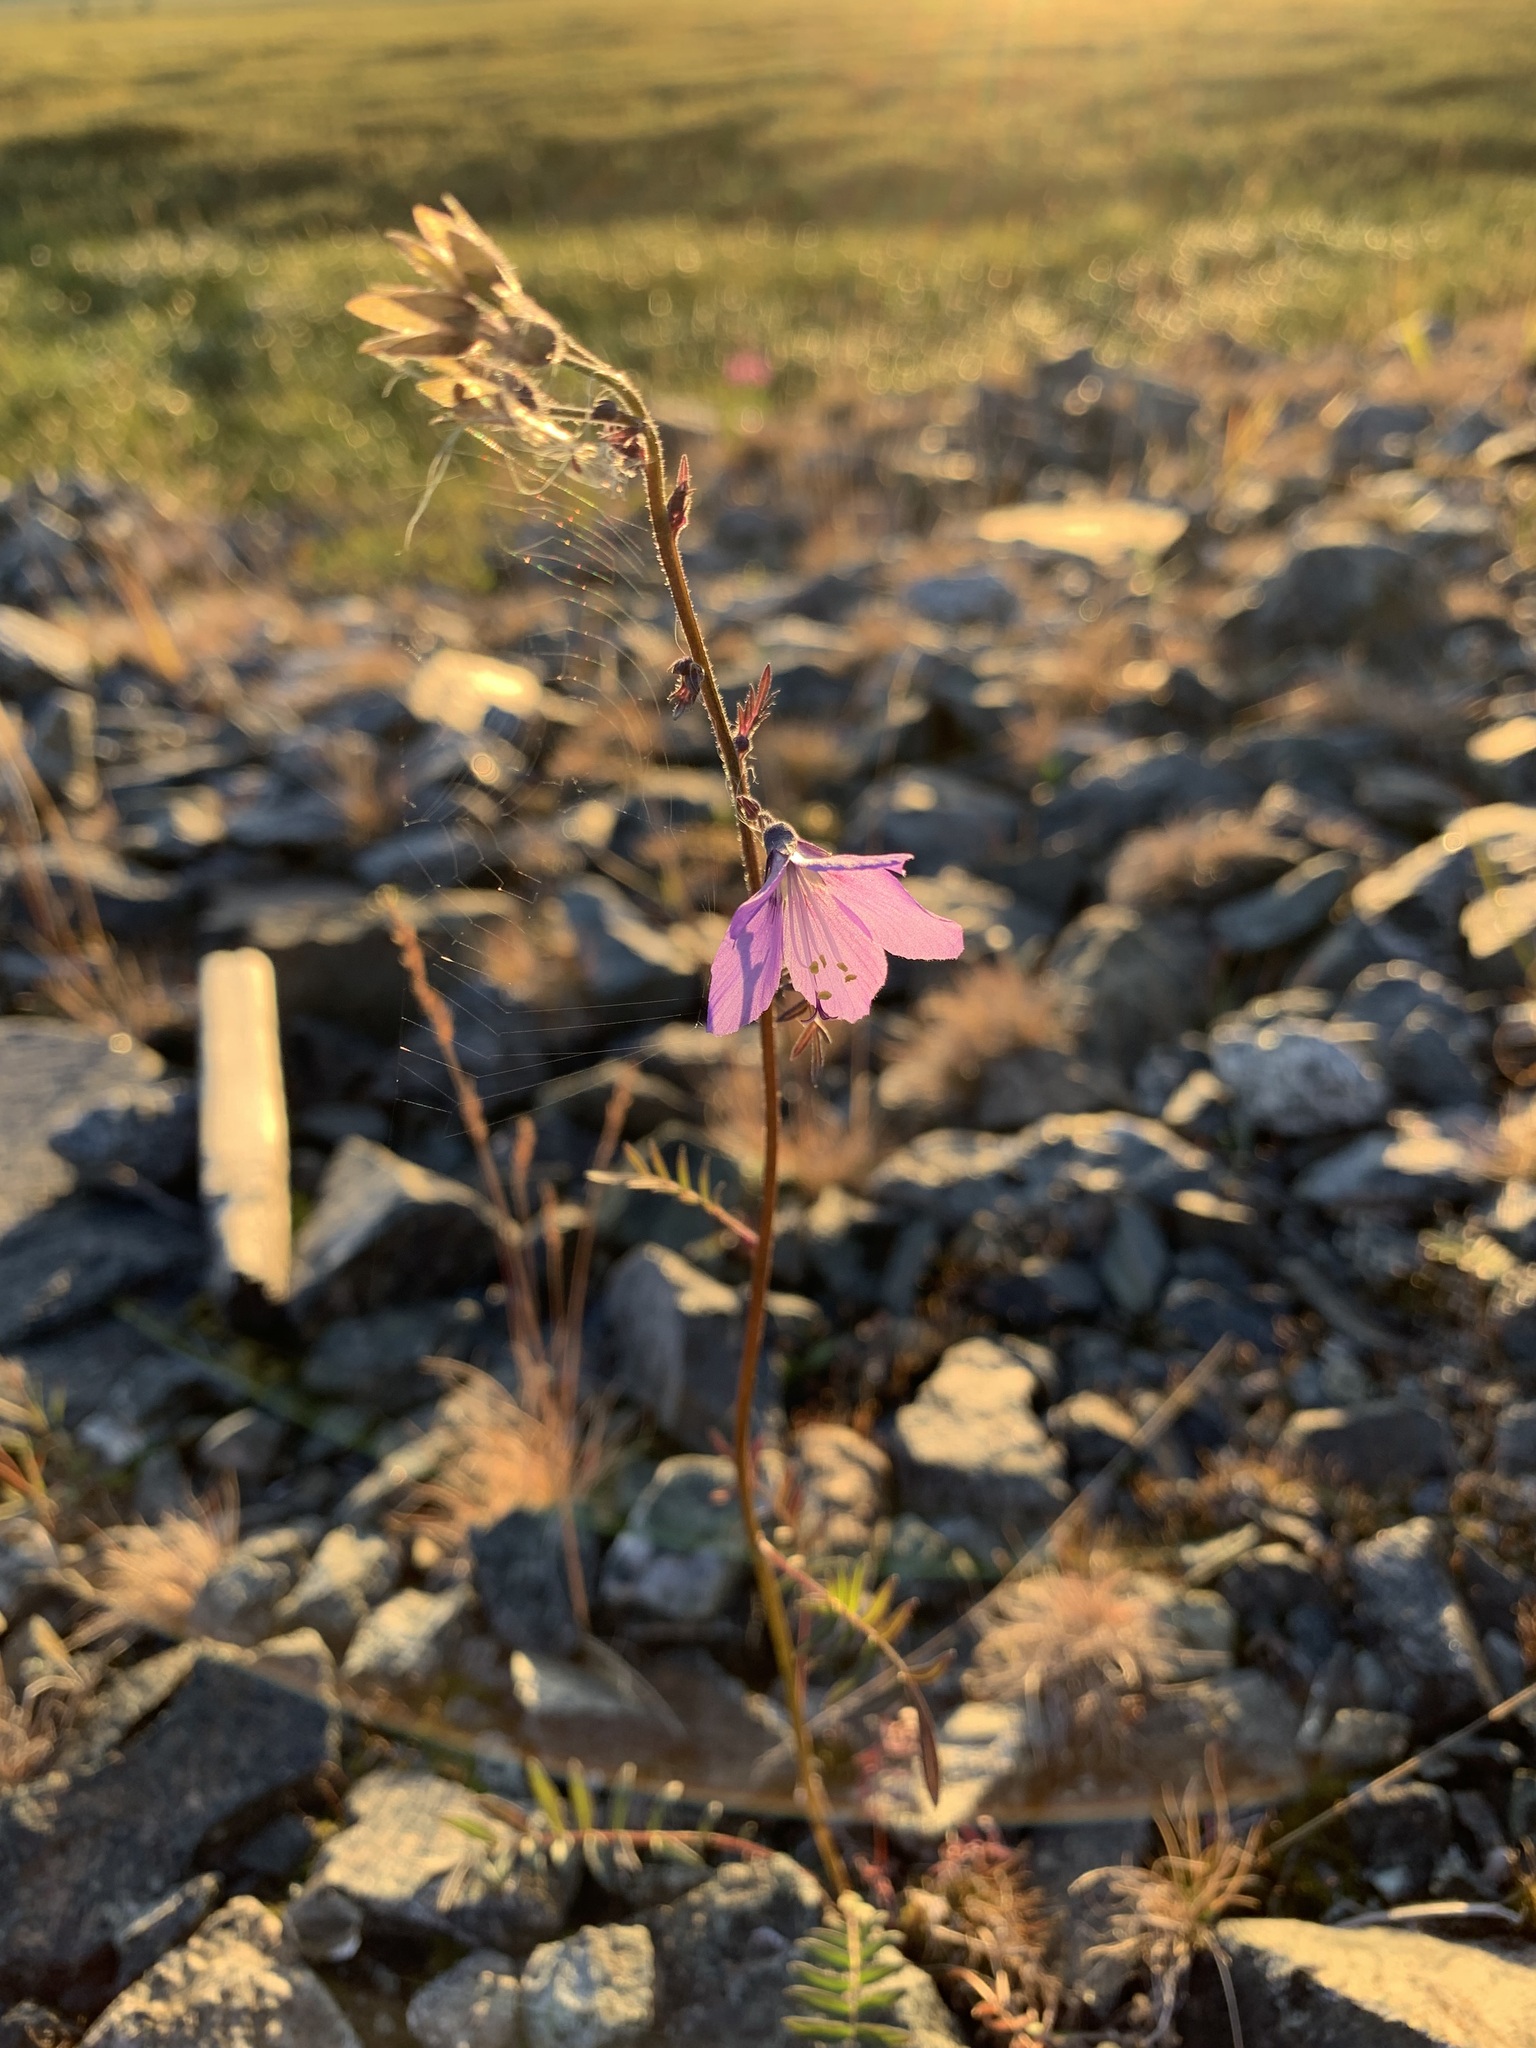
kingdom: Plantae
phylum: Tracheophyta
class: Magnoliopsida
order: Ericales
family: Polemoniaceae
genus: Polemonium
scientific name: Polemonium acutiflorum
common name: Tall jacob's-ladder
